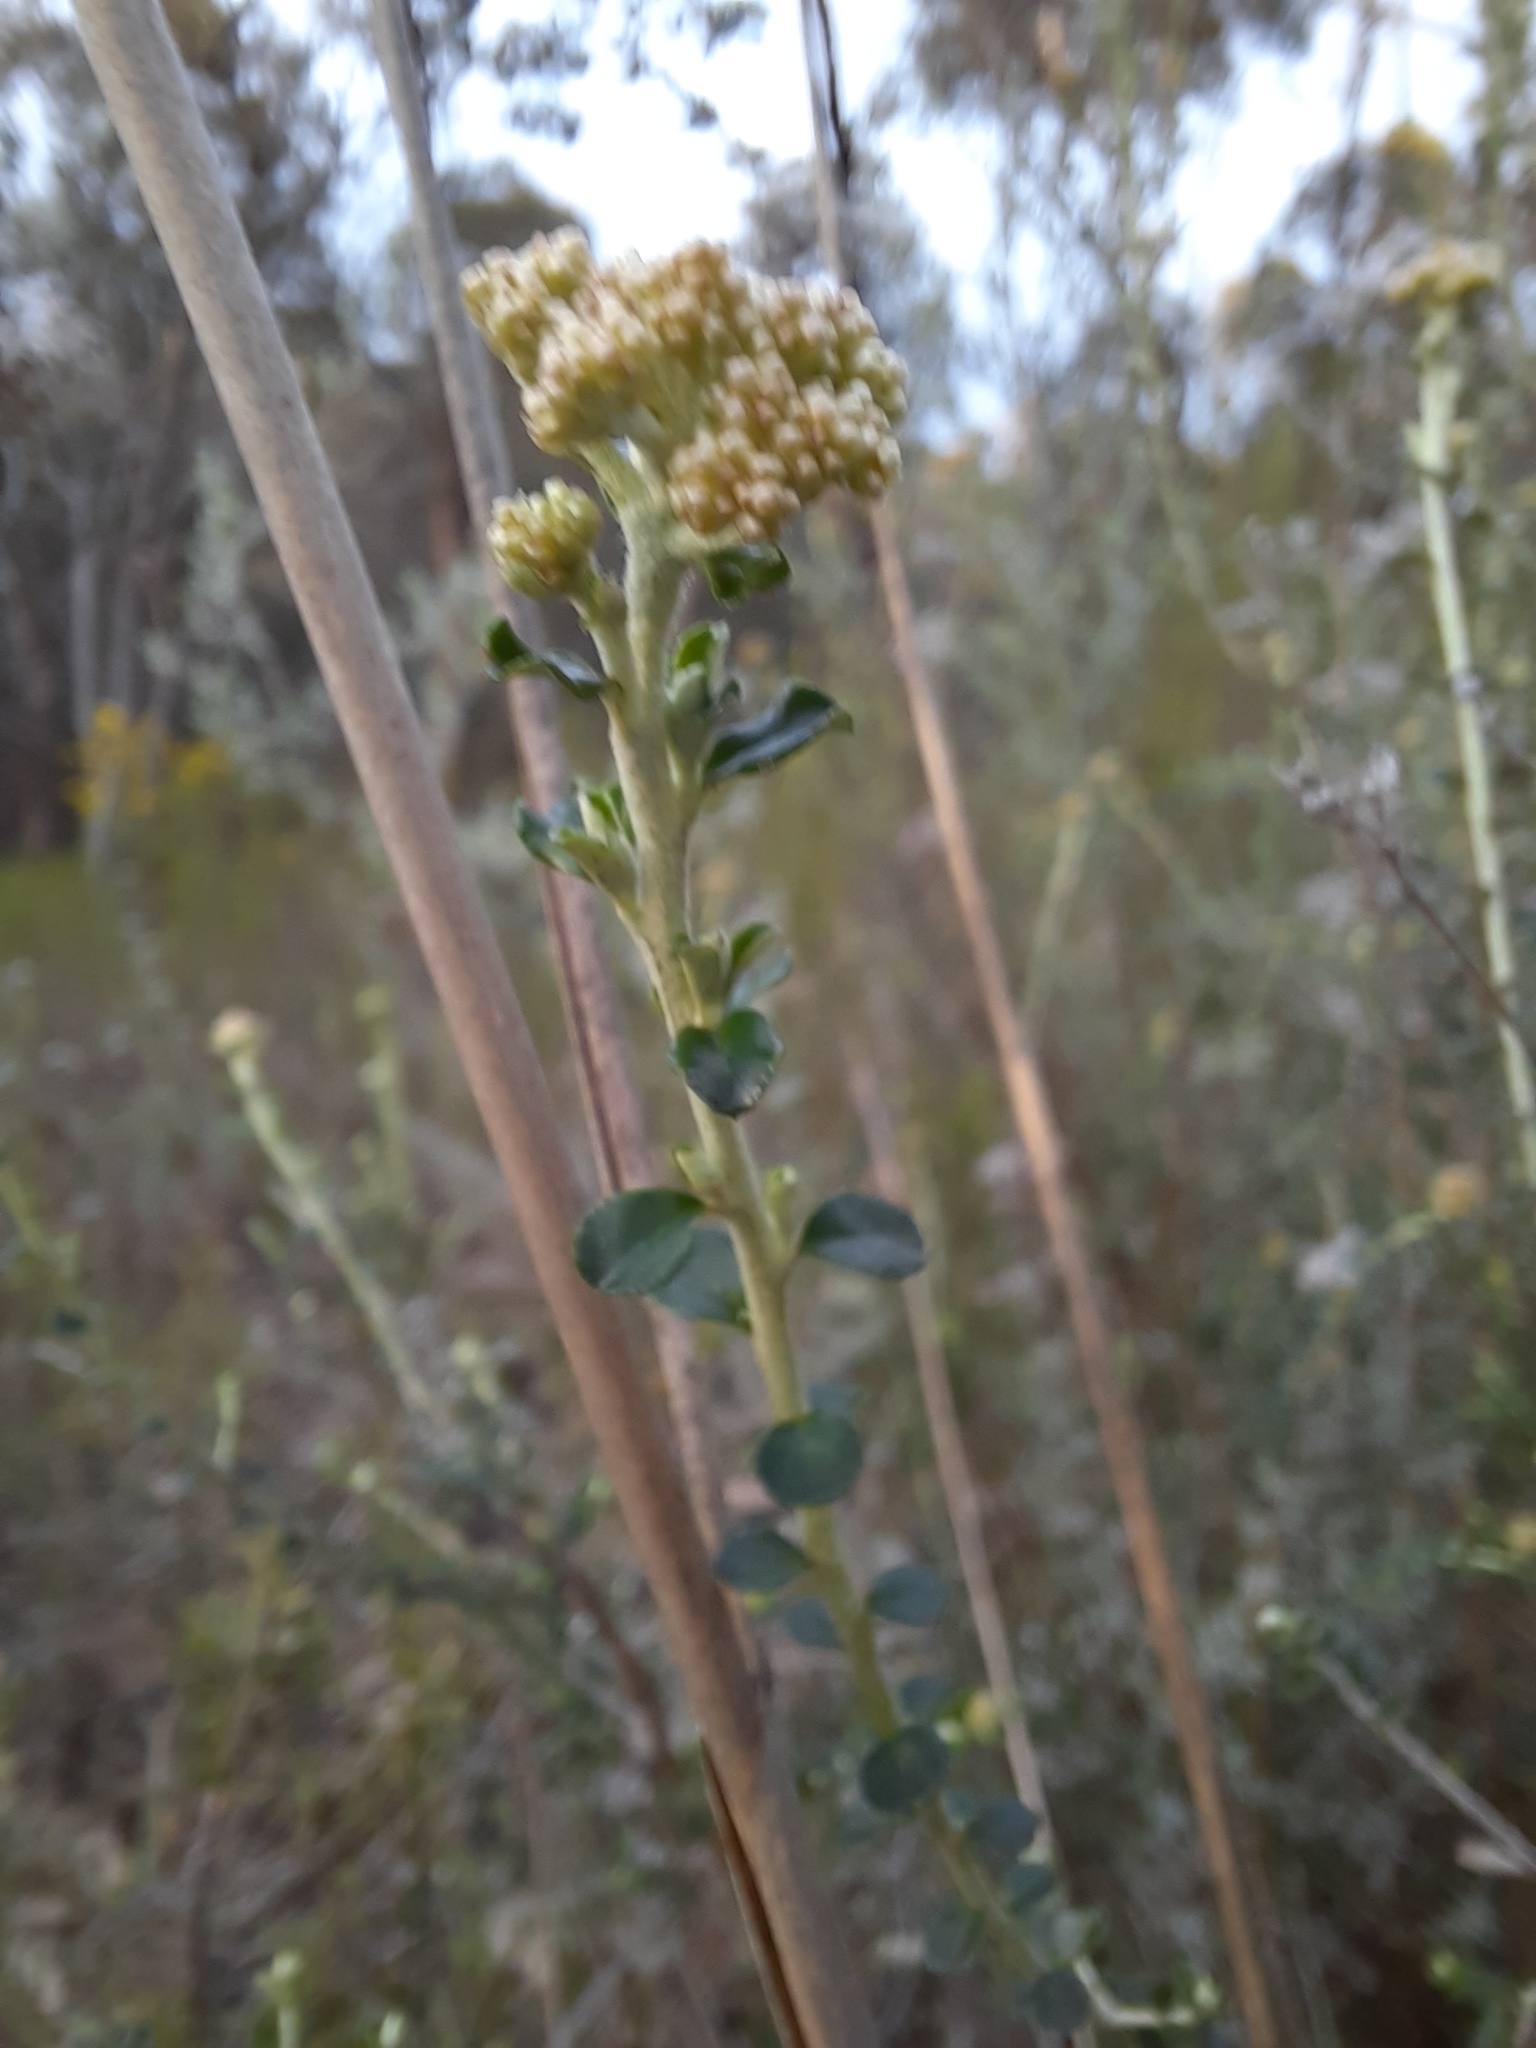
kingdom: Plantae
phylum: Tracheophyta
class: Magnoliopsida
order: Asterales
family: Asteraceae
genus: Ozothamnus
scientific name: Ozothamnus obcordatus
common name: Grey everlasting
